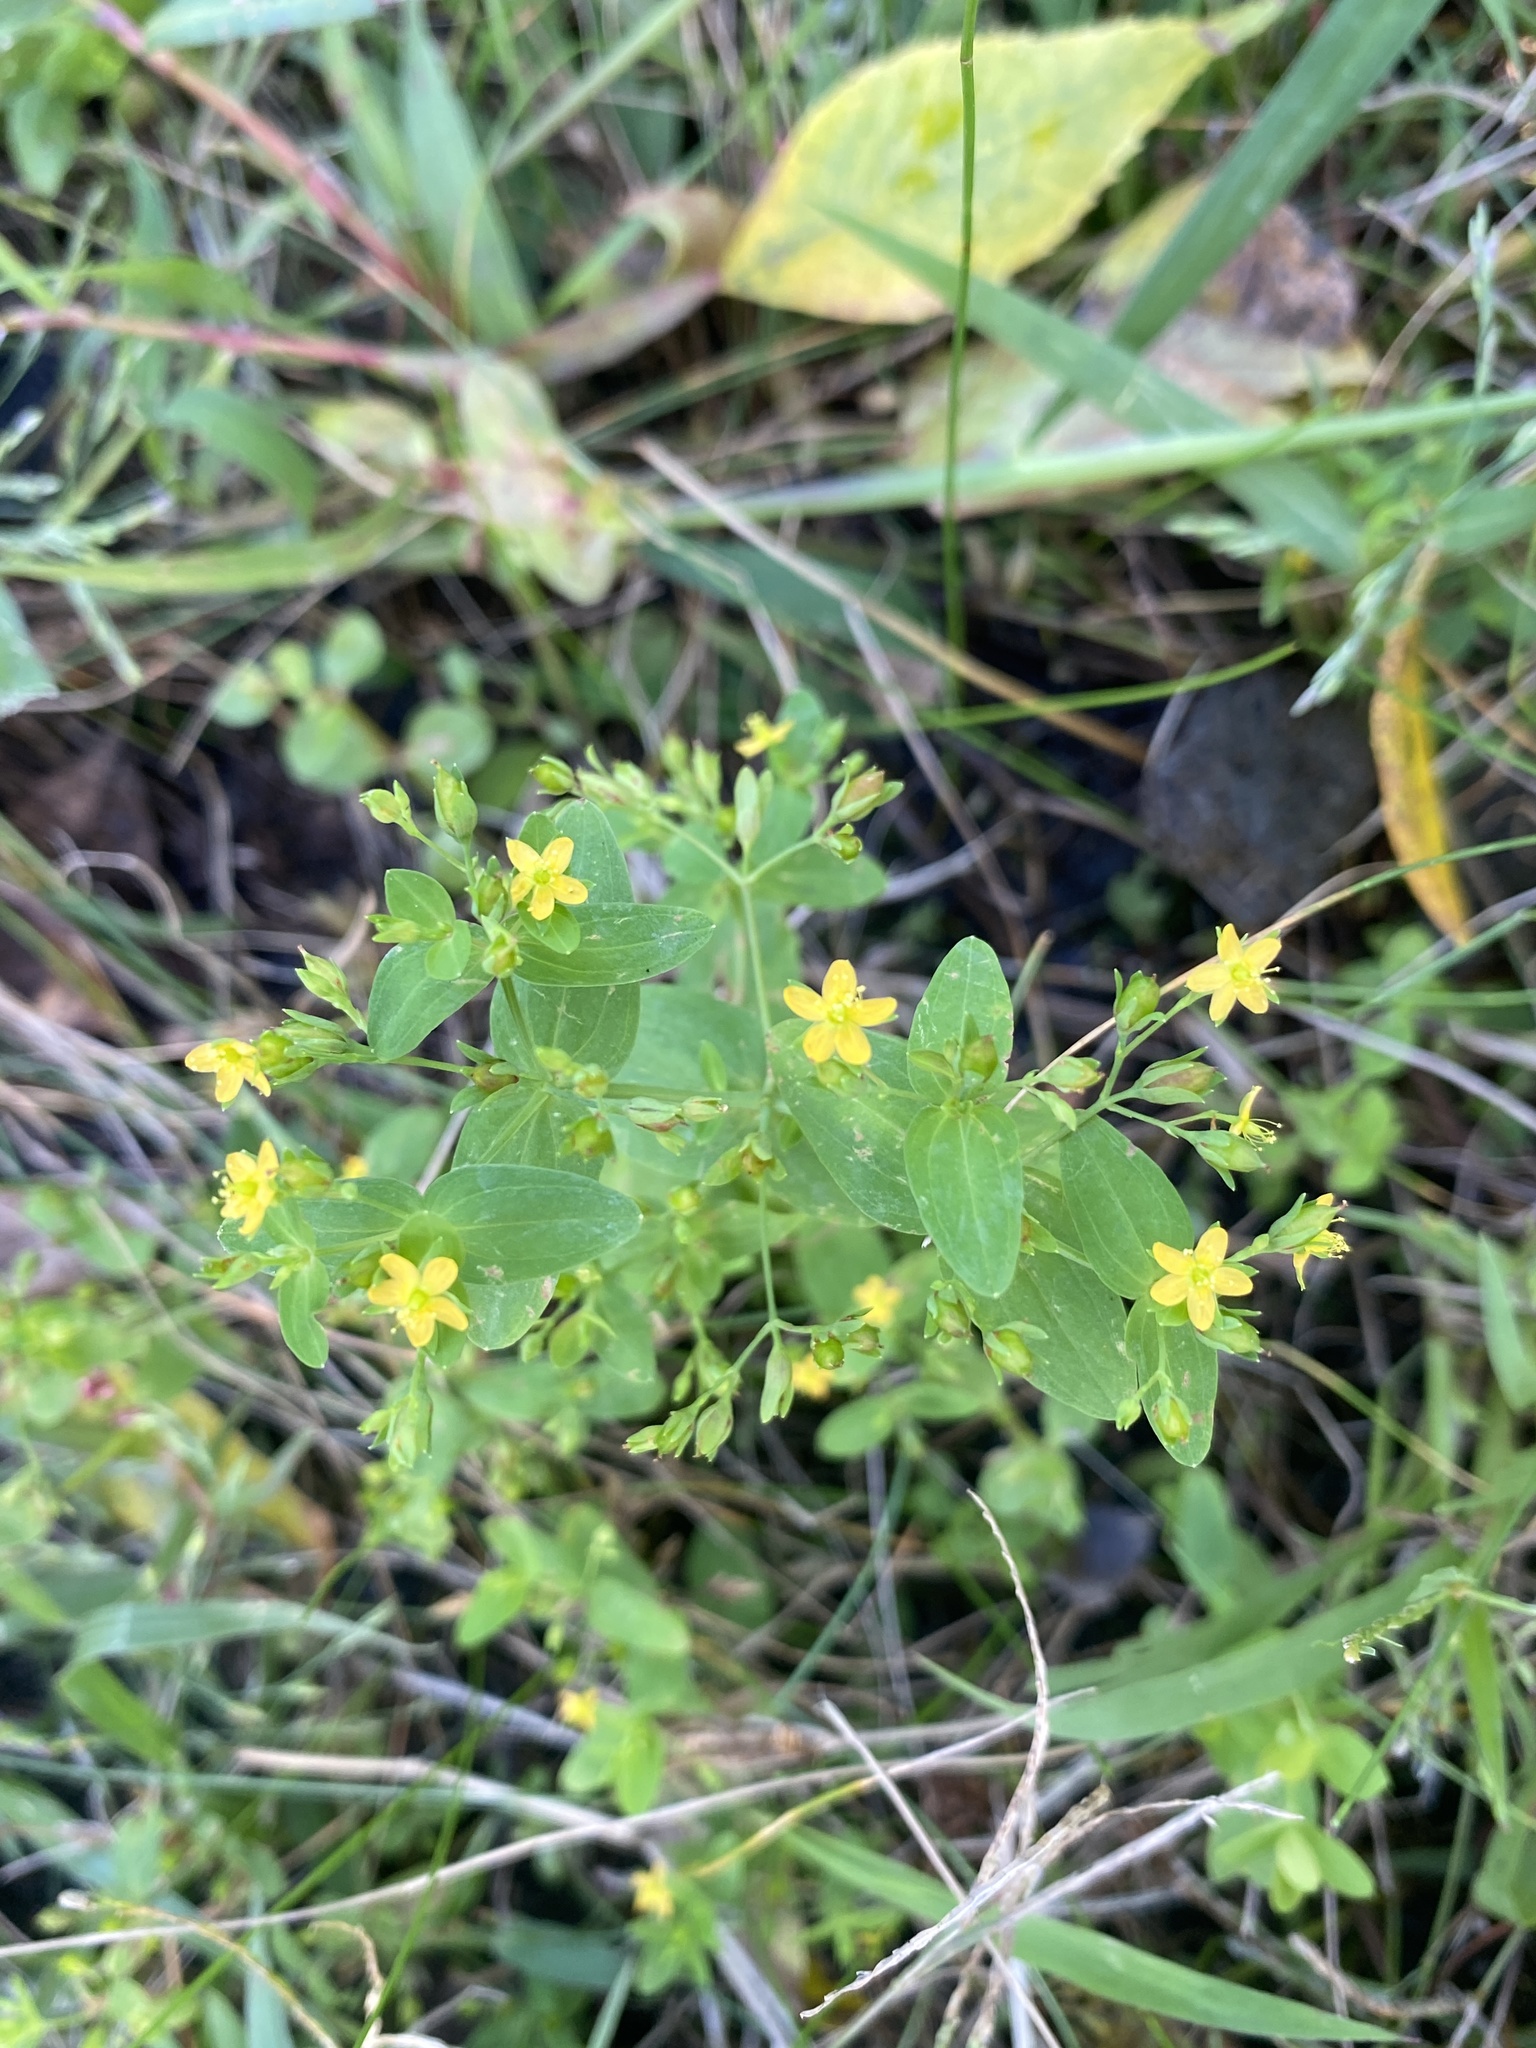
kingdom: Plantae
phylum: Tracheophyta
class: Magnoliopsida
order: Malpighiales
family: Hypericaceae
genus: Hypericum
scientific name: Hypericum mutilum
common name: Dwarf st. john's-wort
